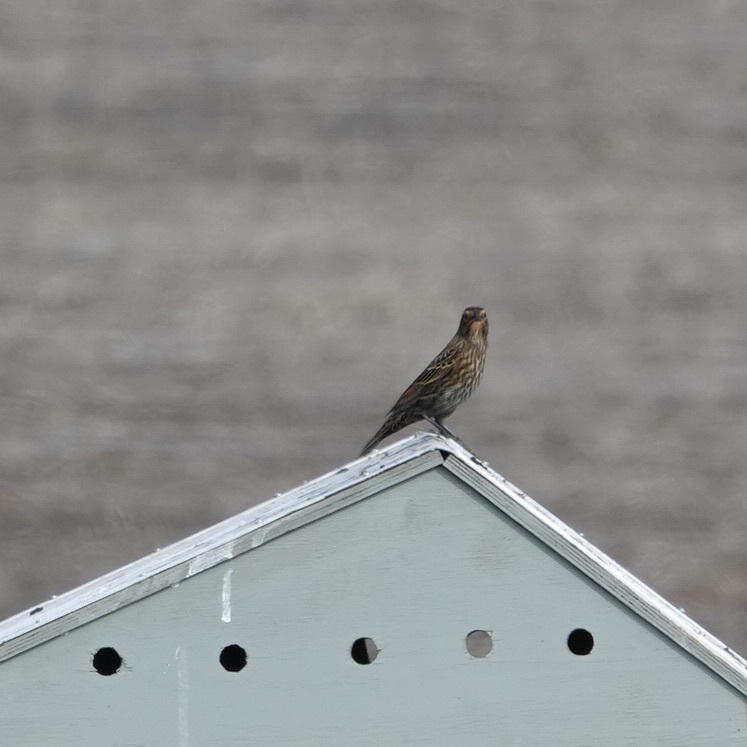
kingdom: Animalia
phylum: Chordata
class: Aves
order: Passeriformes
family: Icteridae
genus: Agelaius
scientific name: Agelaius phoeniceus
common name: Red-winged blackbird
